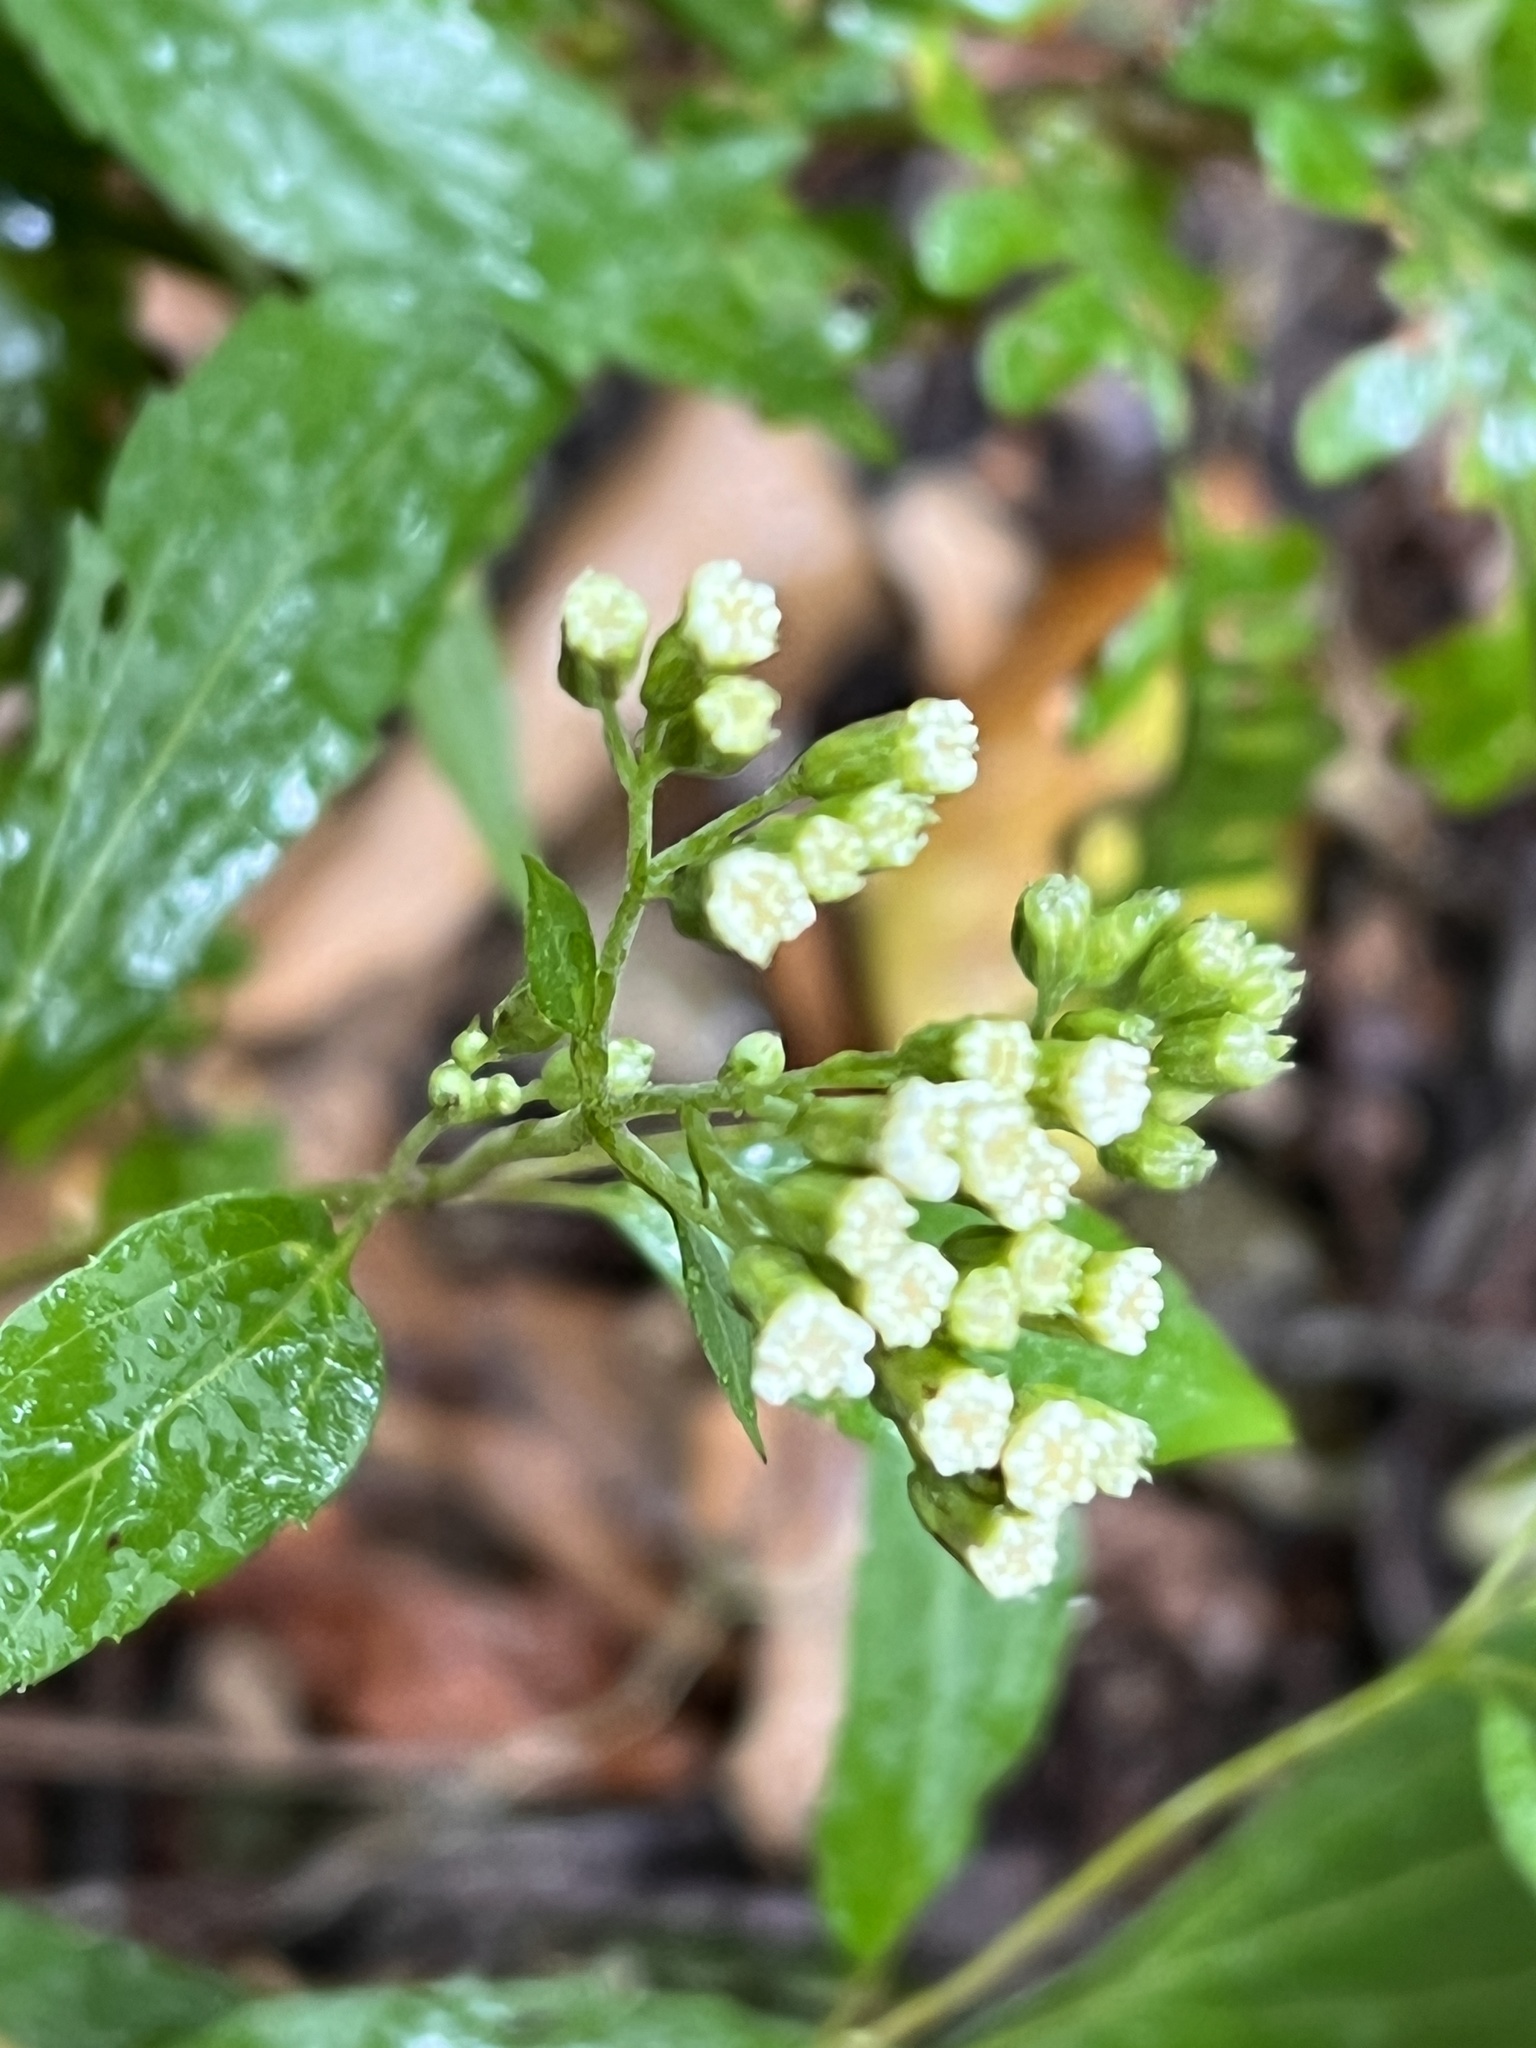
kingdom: Plantae
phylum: Tracheophyta
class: Magnoliopsida
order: Asterales
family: Asteraceae
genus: Ageratina
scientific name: Ageratina riparia
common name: Creeping croftonweed
